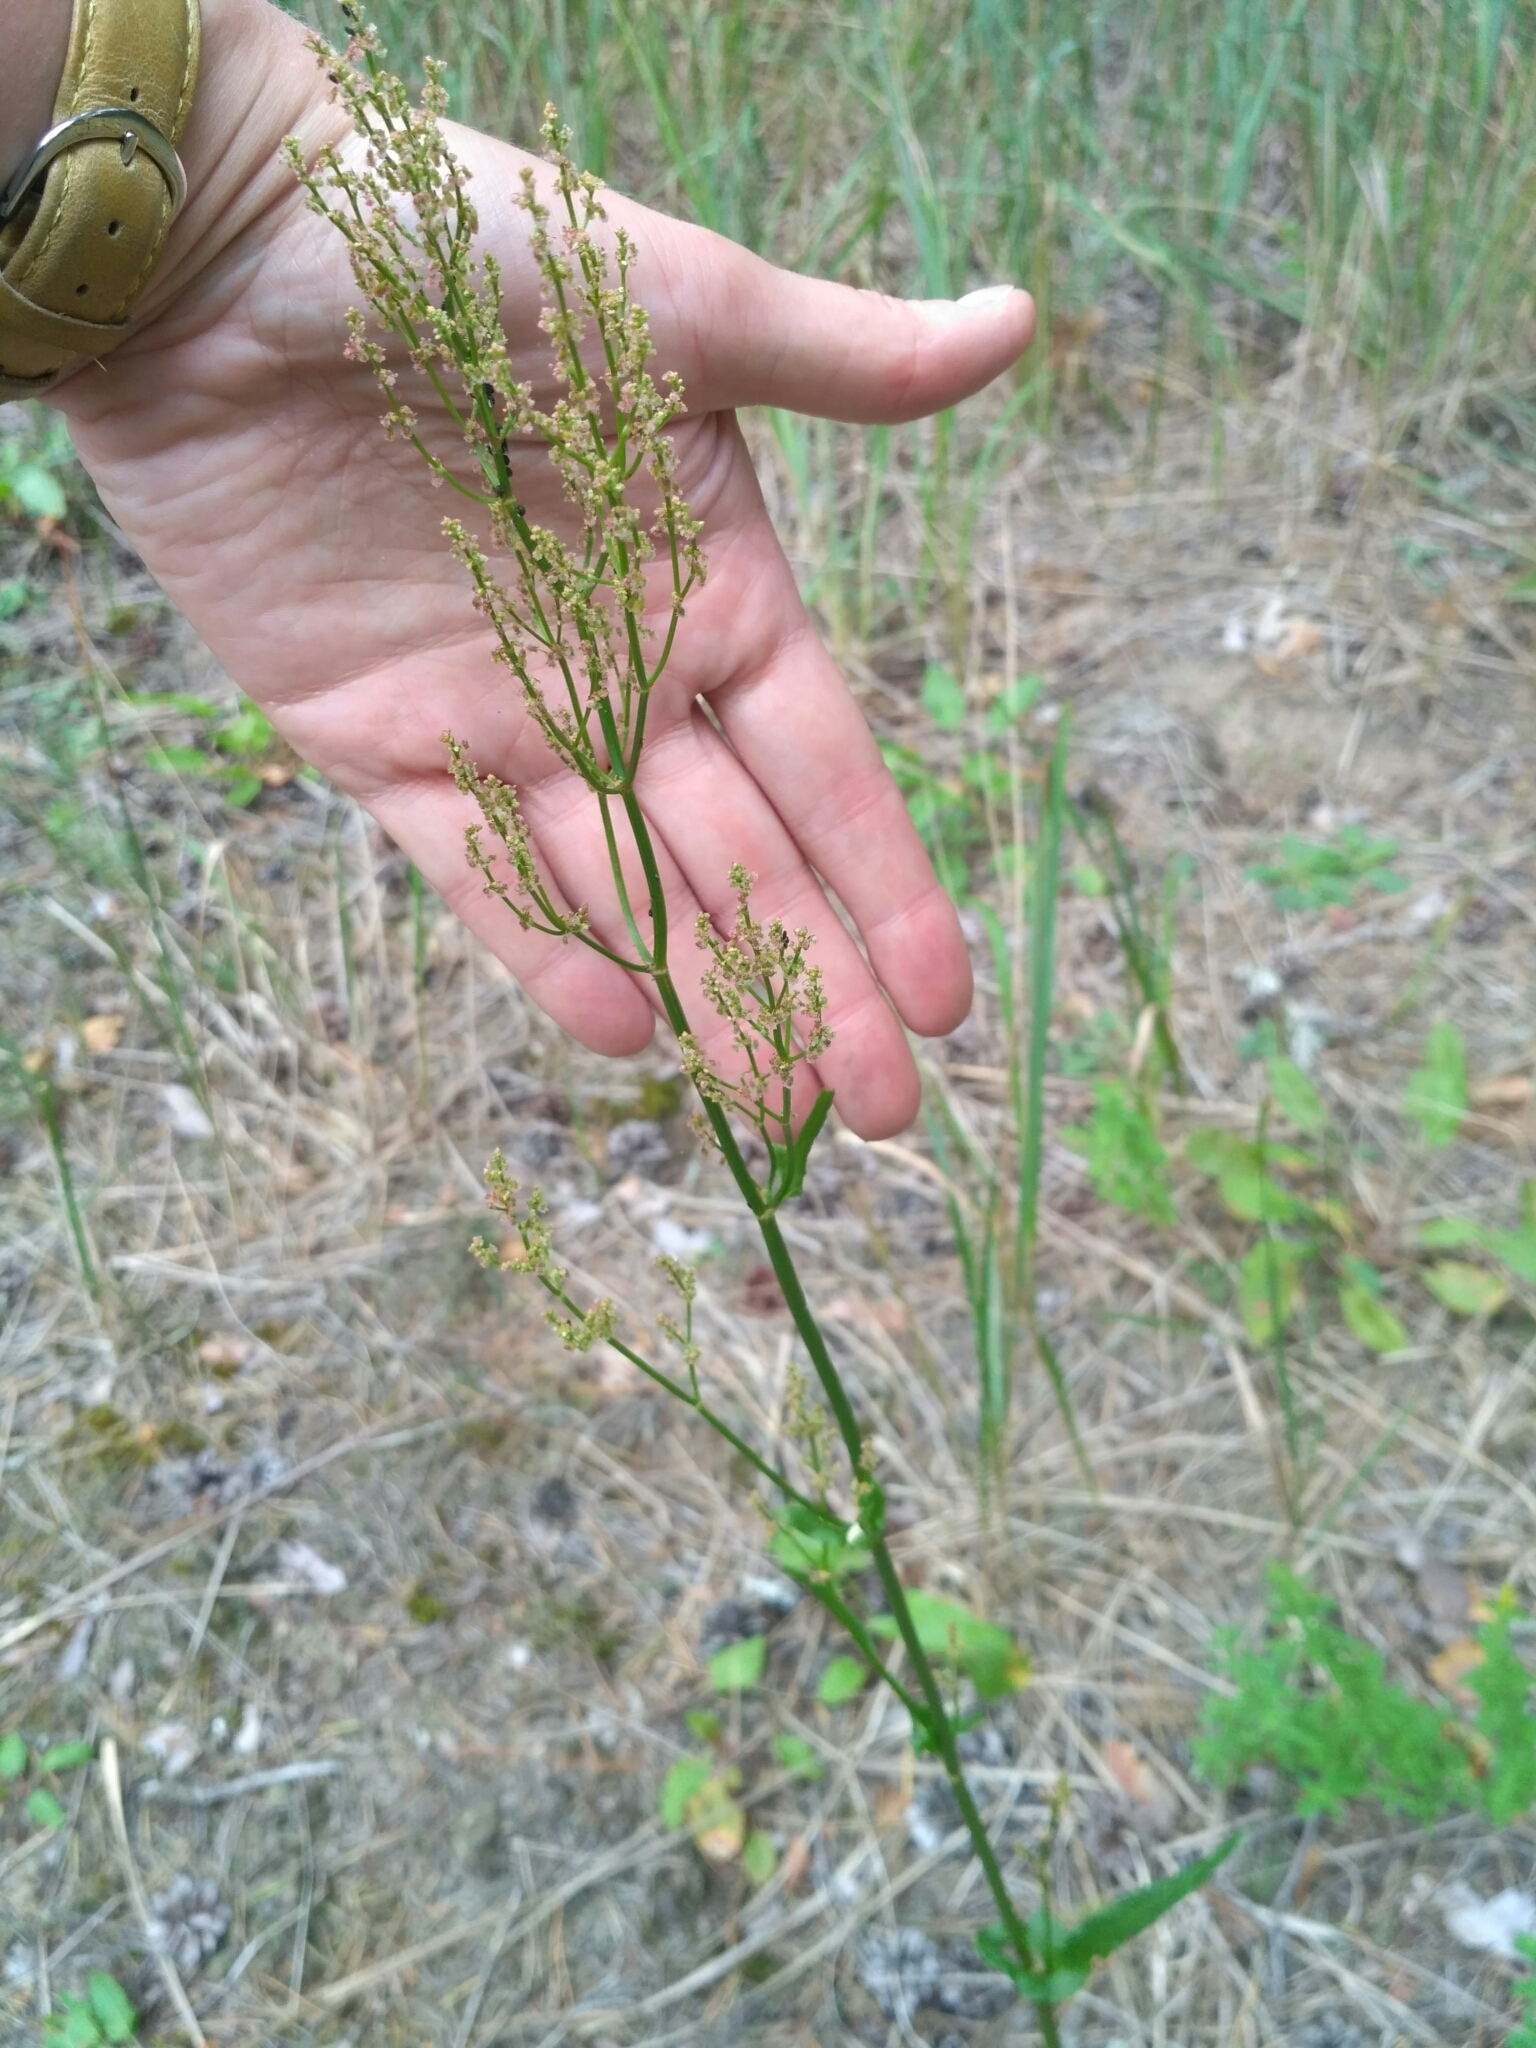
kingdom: Plantae
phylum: Tracheophyta
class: Magnoliopsida
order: Caryophyllales
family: Polygonaceae
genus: Rumex
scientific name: Rumex acetosella
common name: Common sheep sorrel
